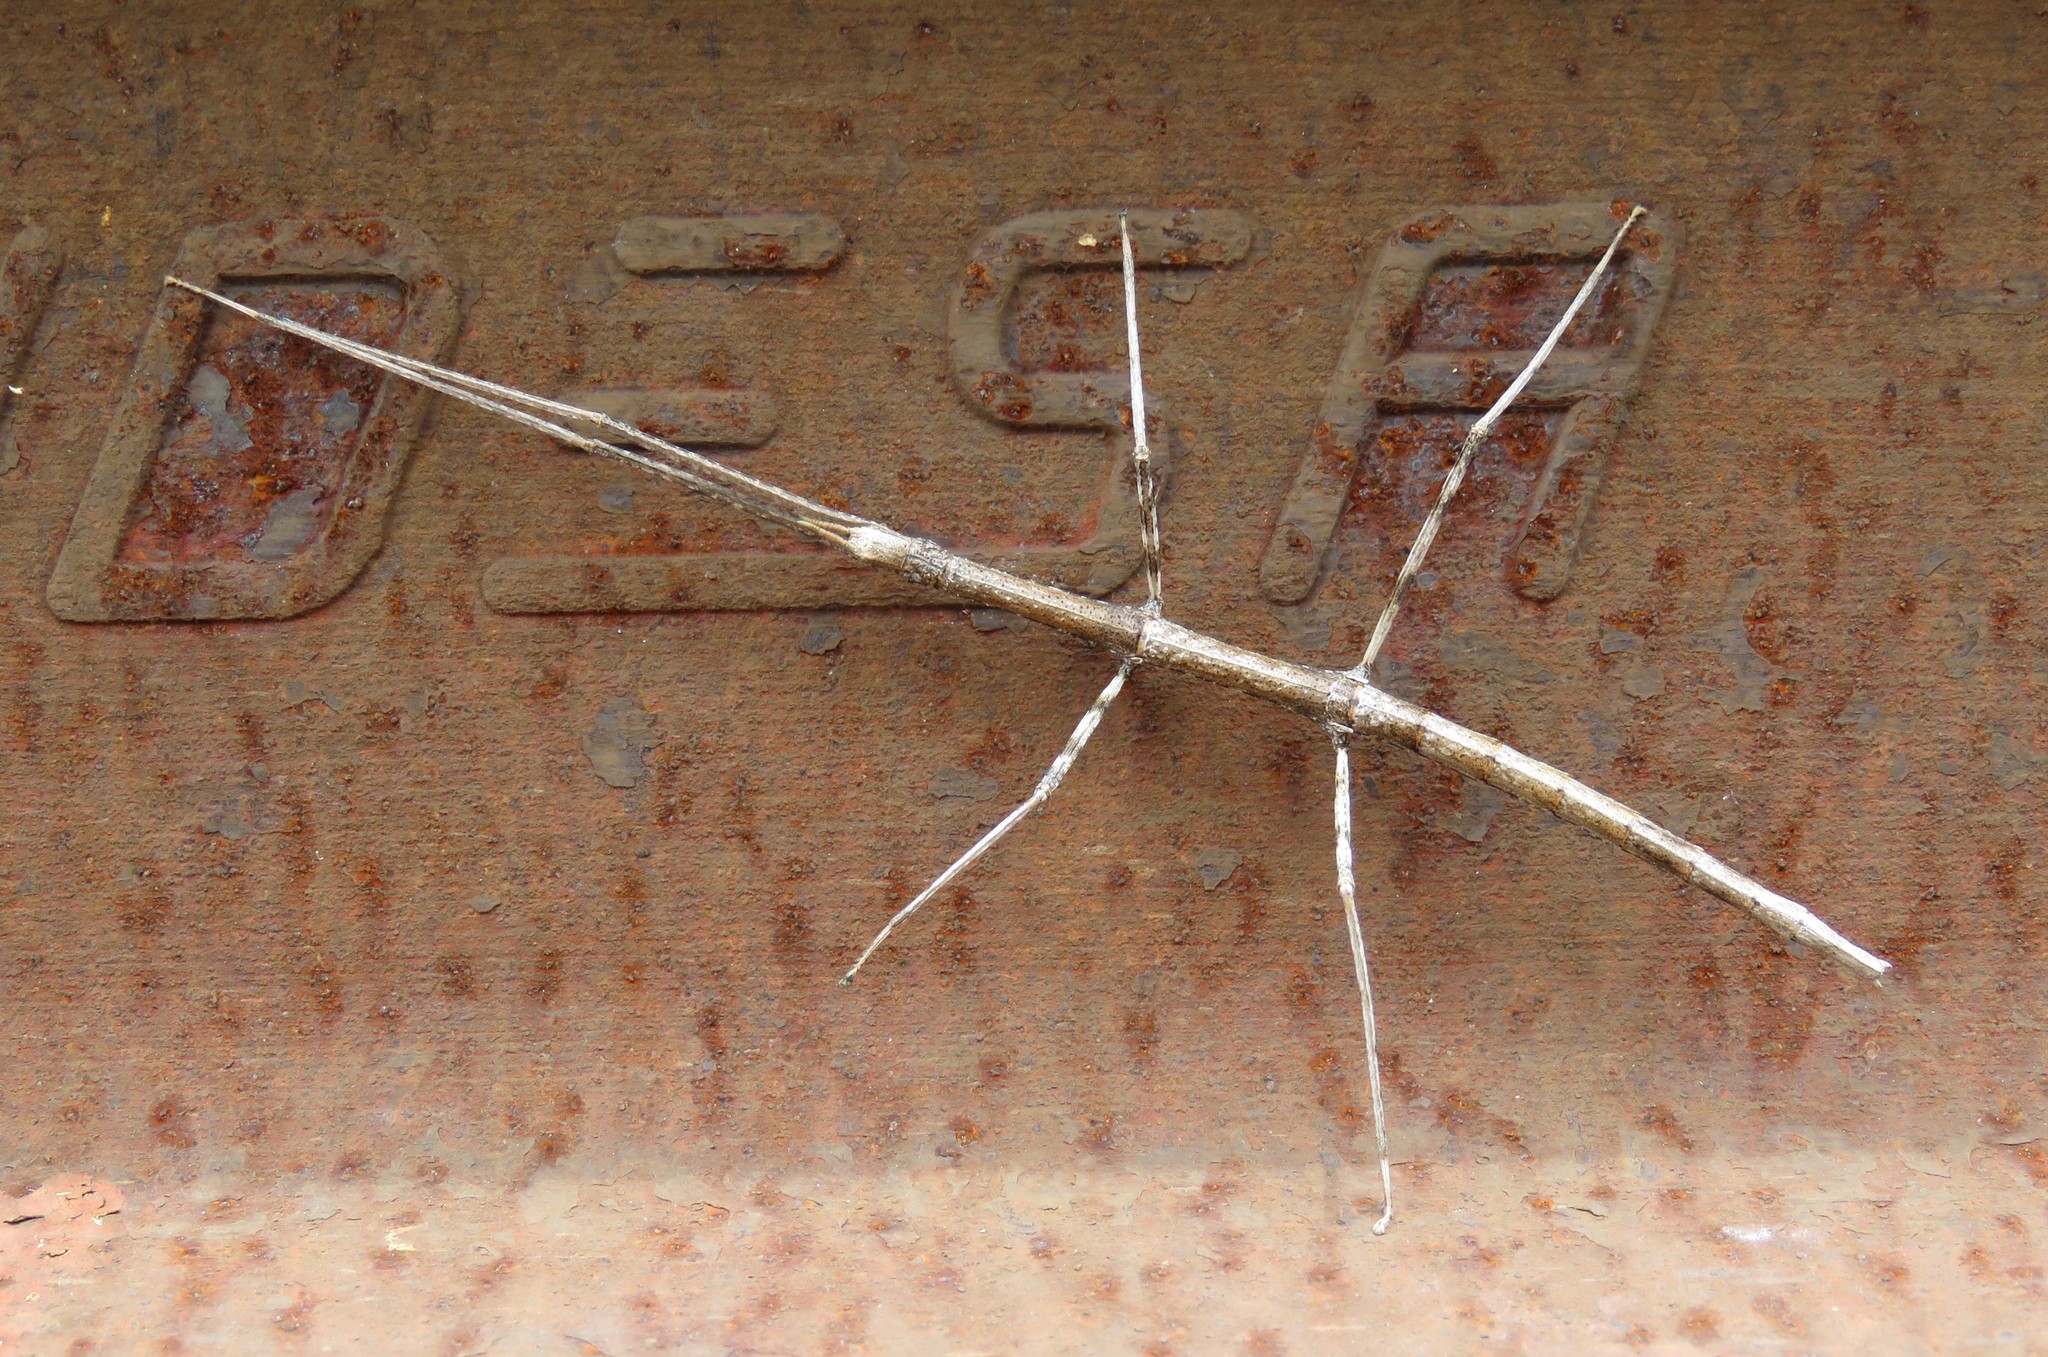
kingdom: Animalia
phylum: Arthropoda
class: Insecta
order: Phasmida
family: Bacillidae
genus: Clonopsis
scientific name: Clonopsis gallica
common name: French stick insect
